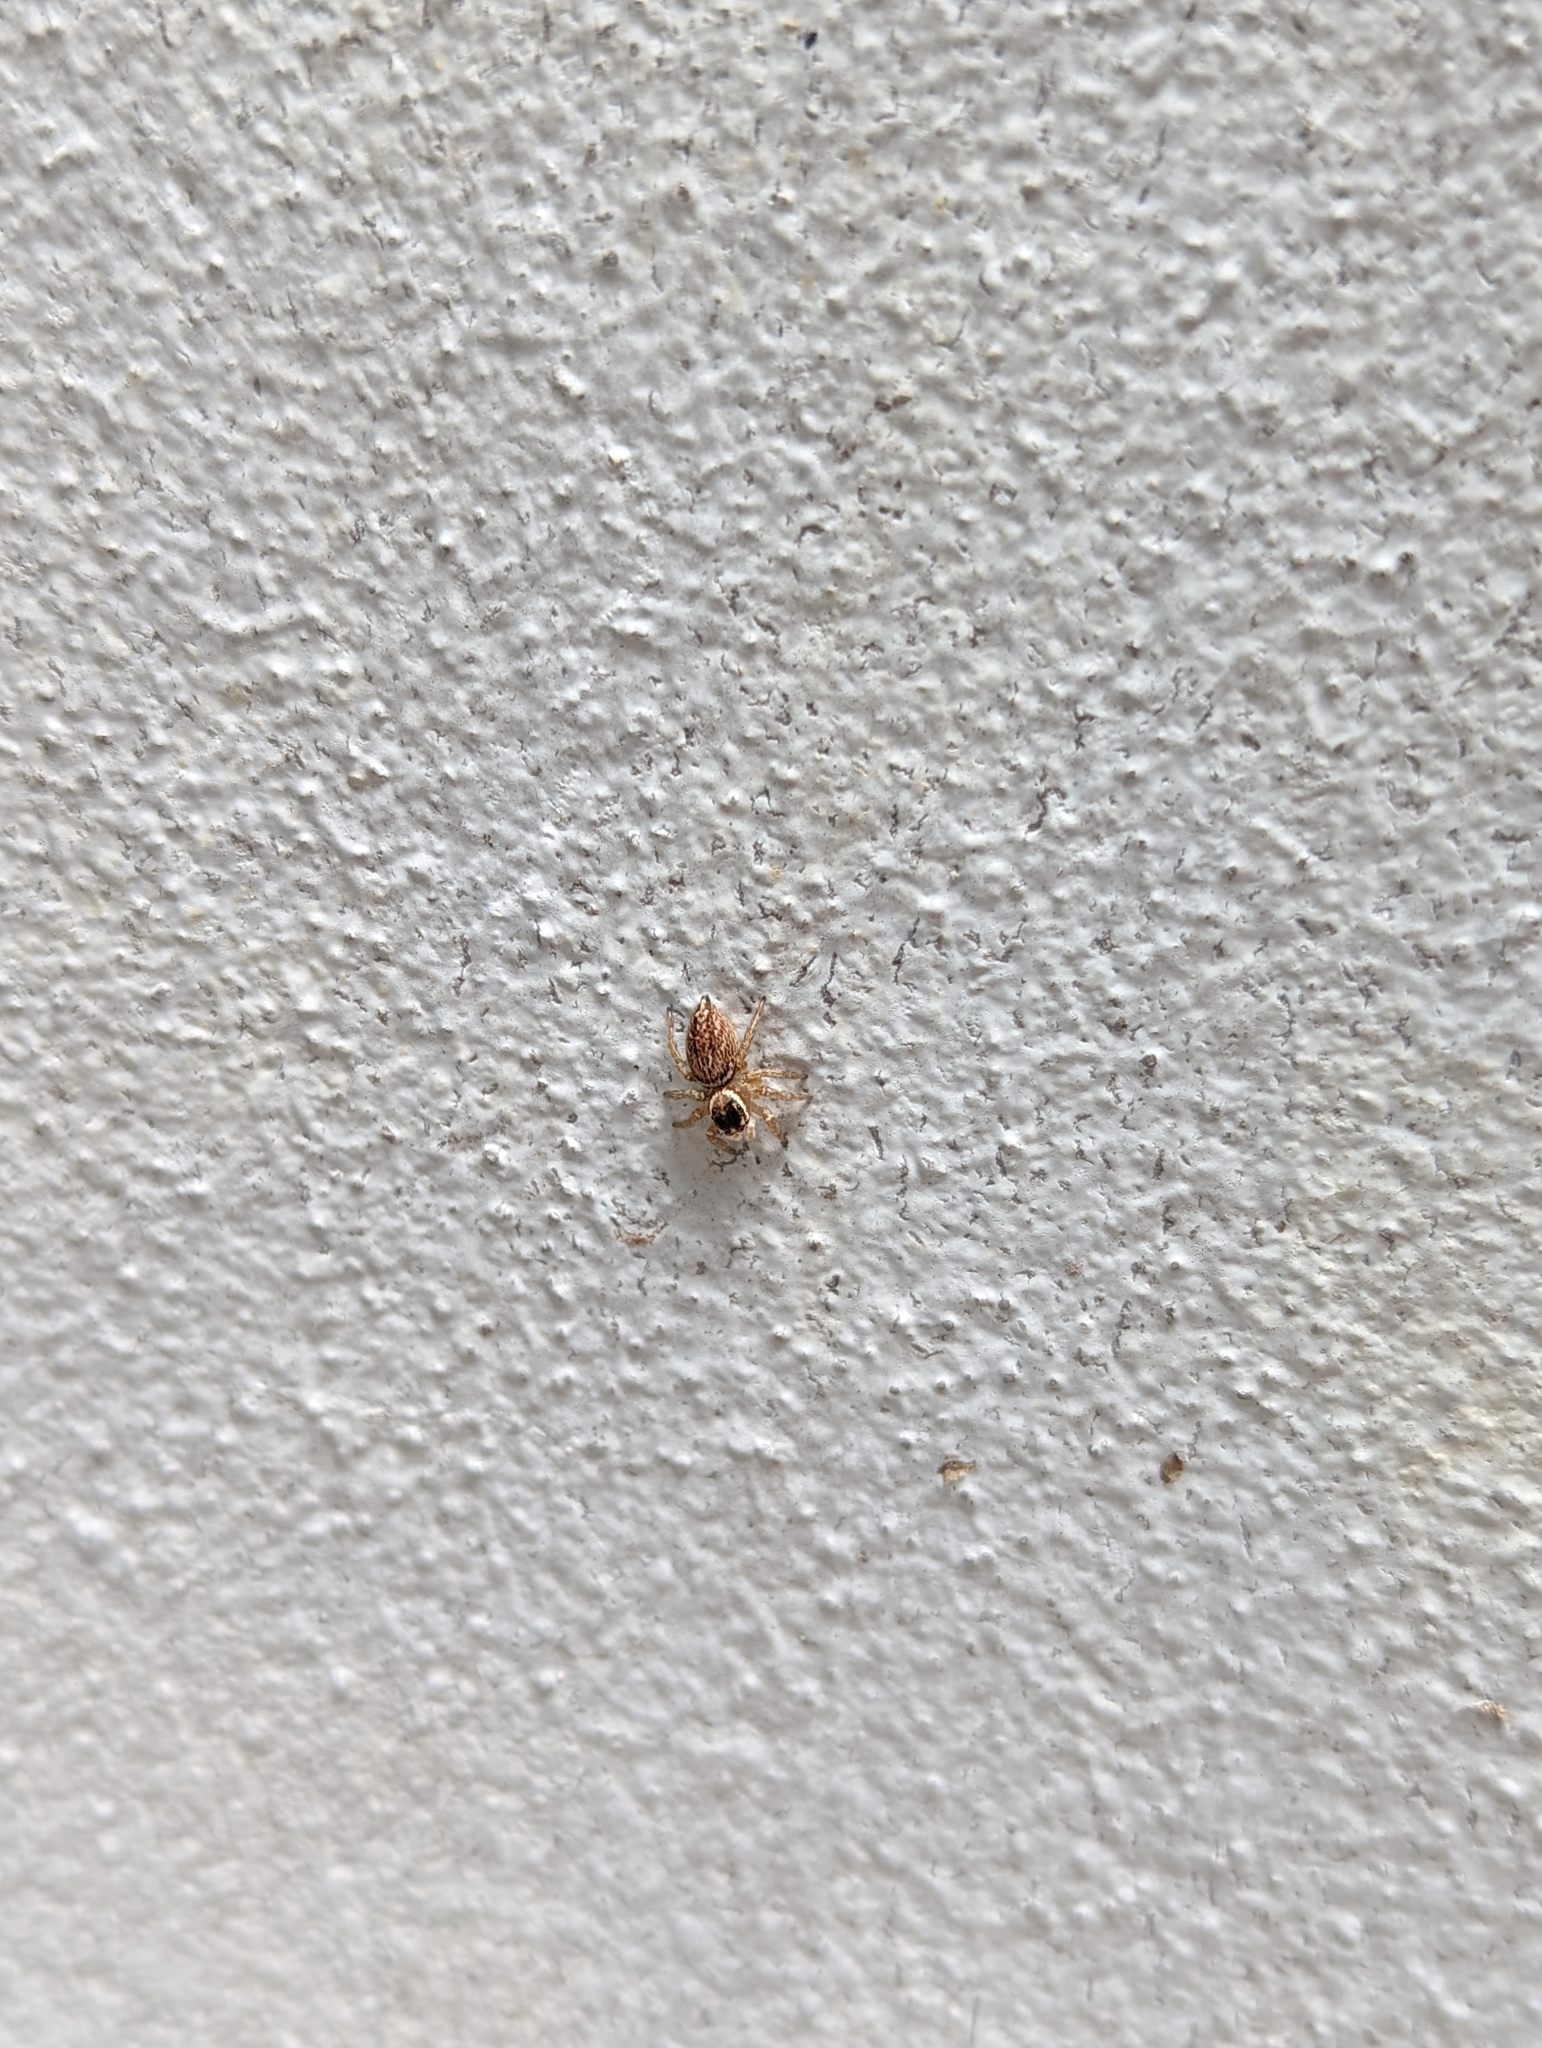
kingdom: Animalia
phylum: Arthropoda
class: Arachnida
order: Araneae
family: Salticidae
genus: Maratus
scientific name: Maratus griseus
